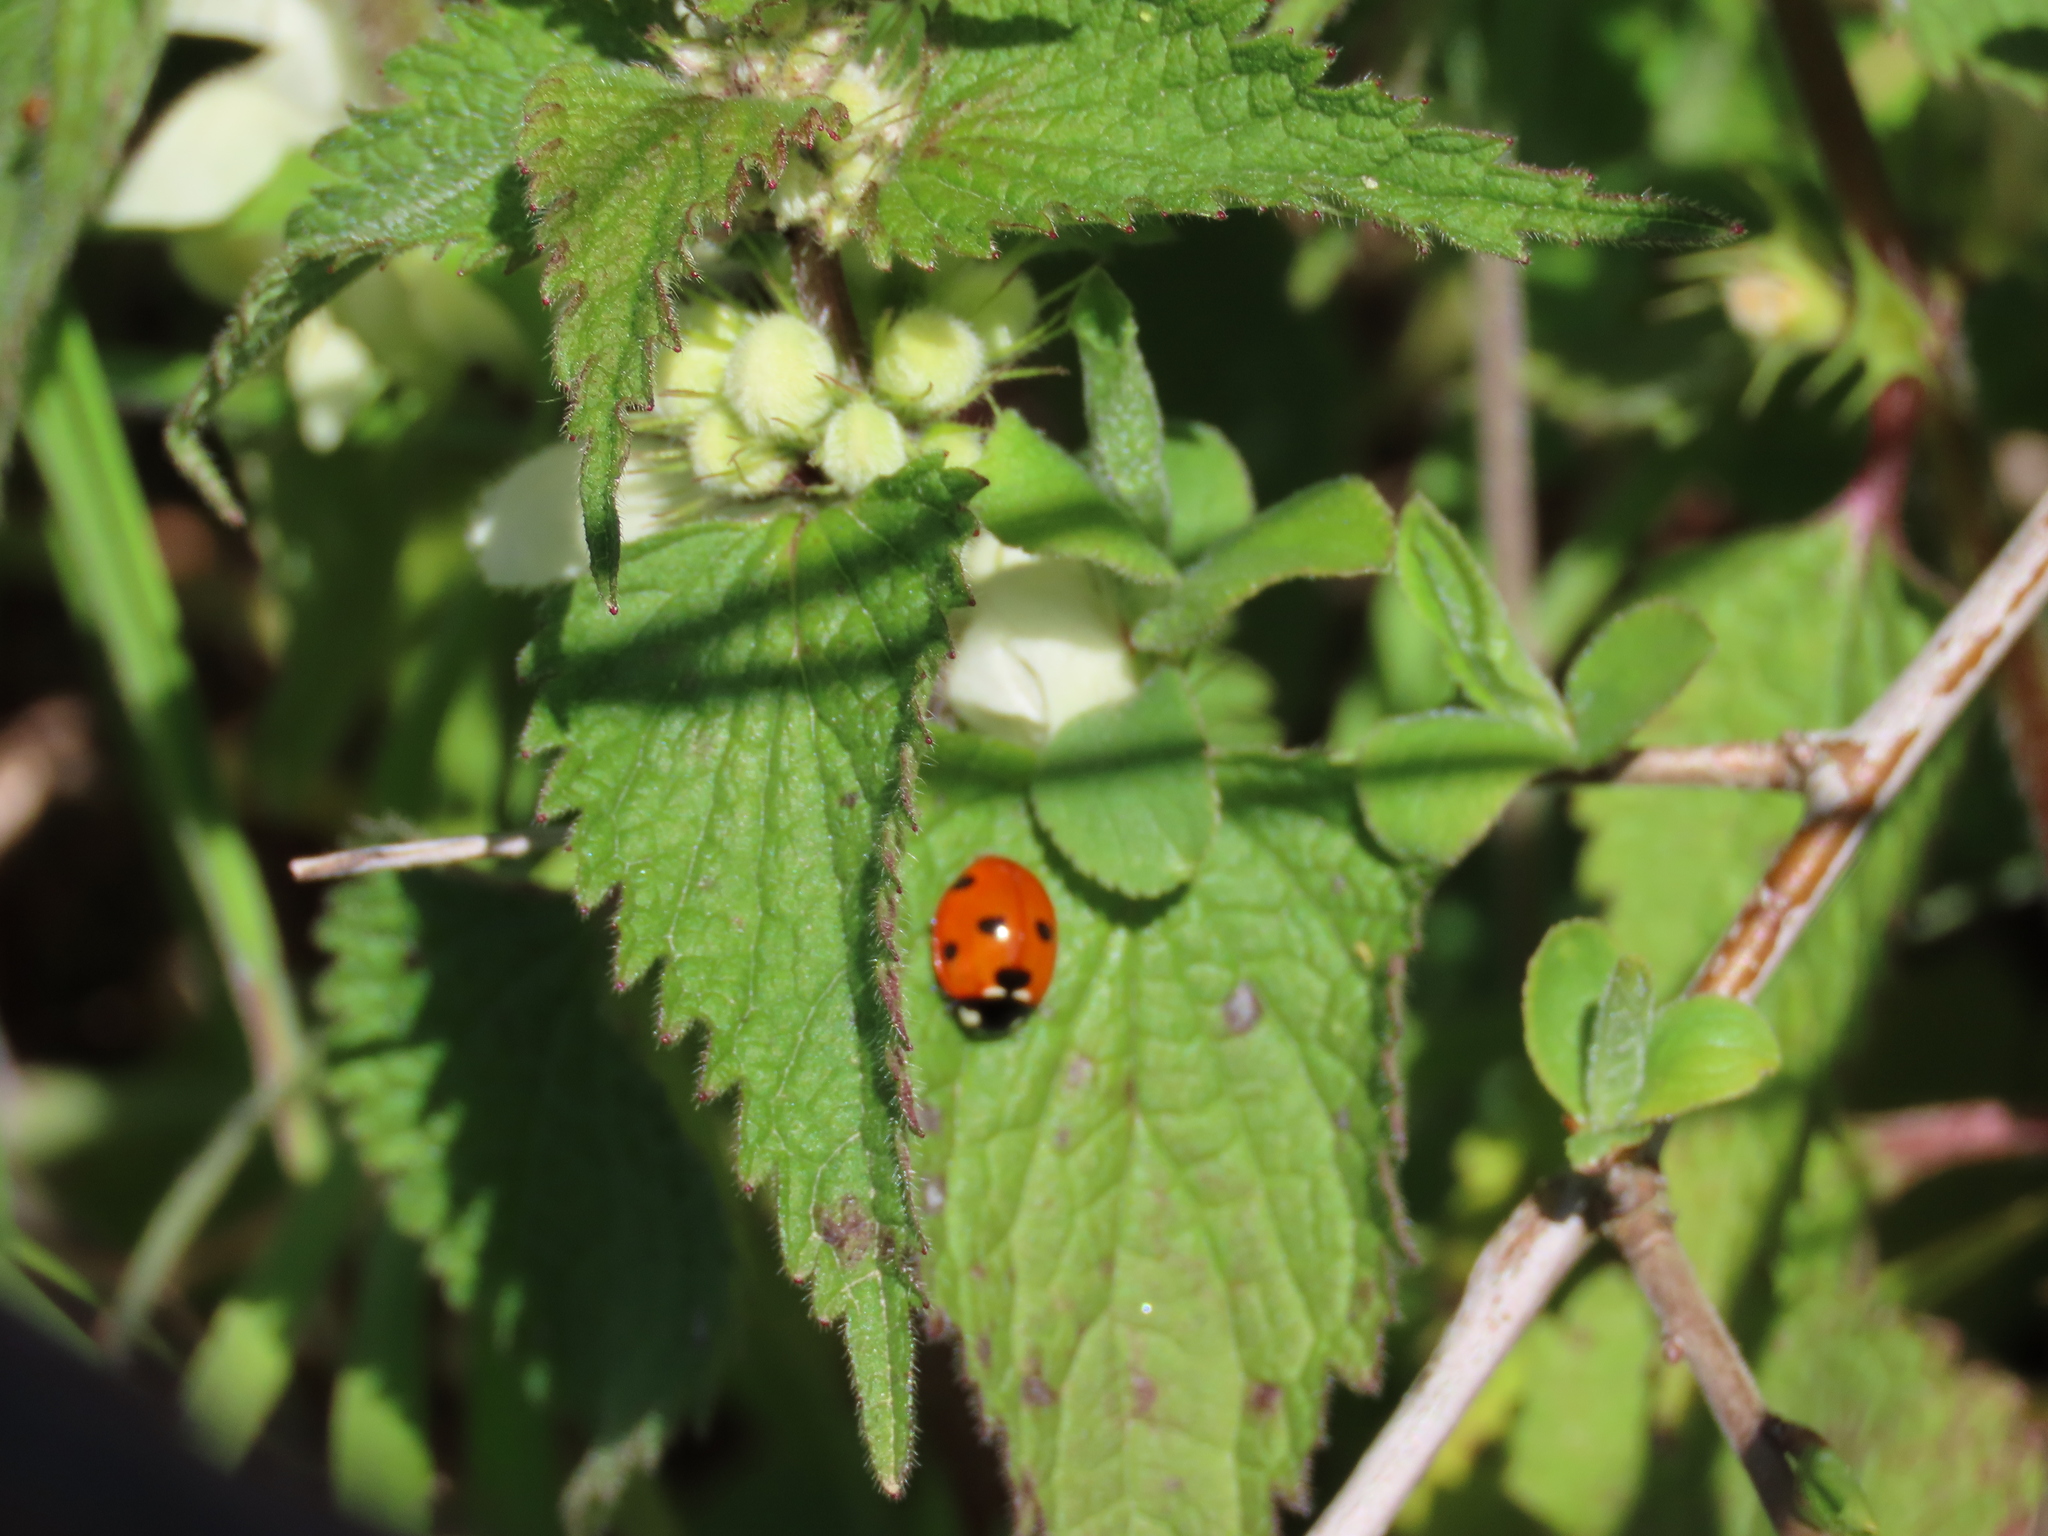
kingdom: Animalia
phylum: Arthropoda
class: Insecta
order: Coleoptera
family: Coccinellidae
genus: Coccinella
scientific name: Coccinella septempunctata
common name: Sevenspotted lady beetle
